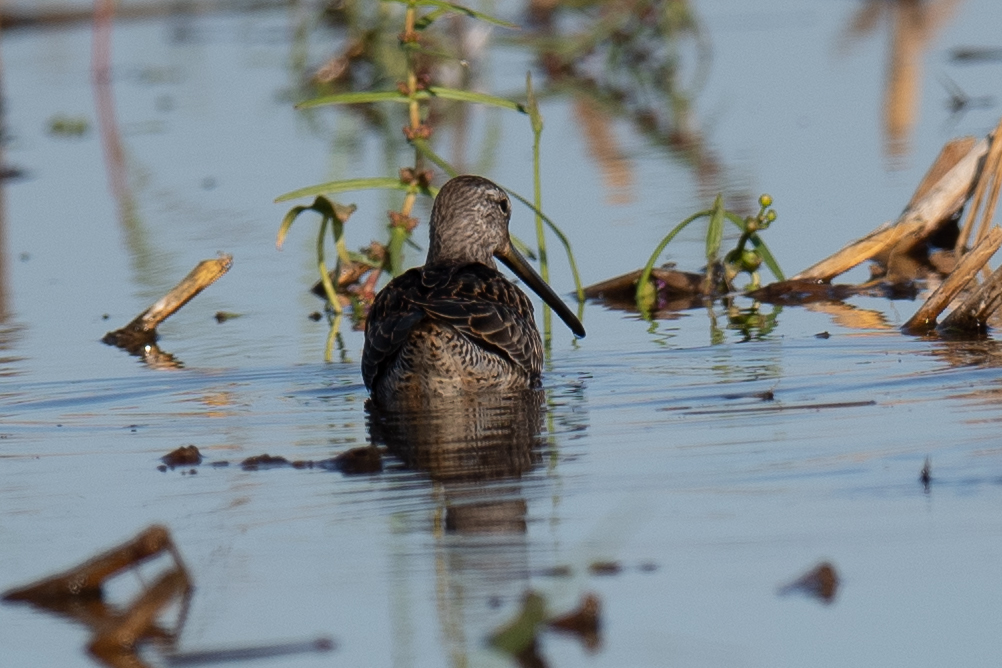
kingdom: Animalia
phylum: Chordata
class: Aves
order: Charadriiformes
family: Scolopacidae
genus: Limnodromus
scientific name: Limnodromus scolopaceus
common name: Long-billed dowitcher
